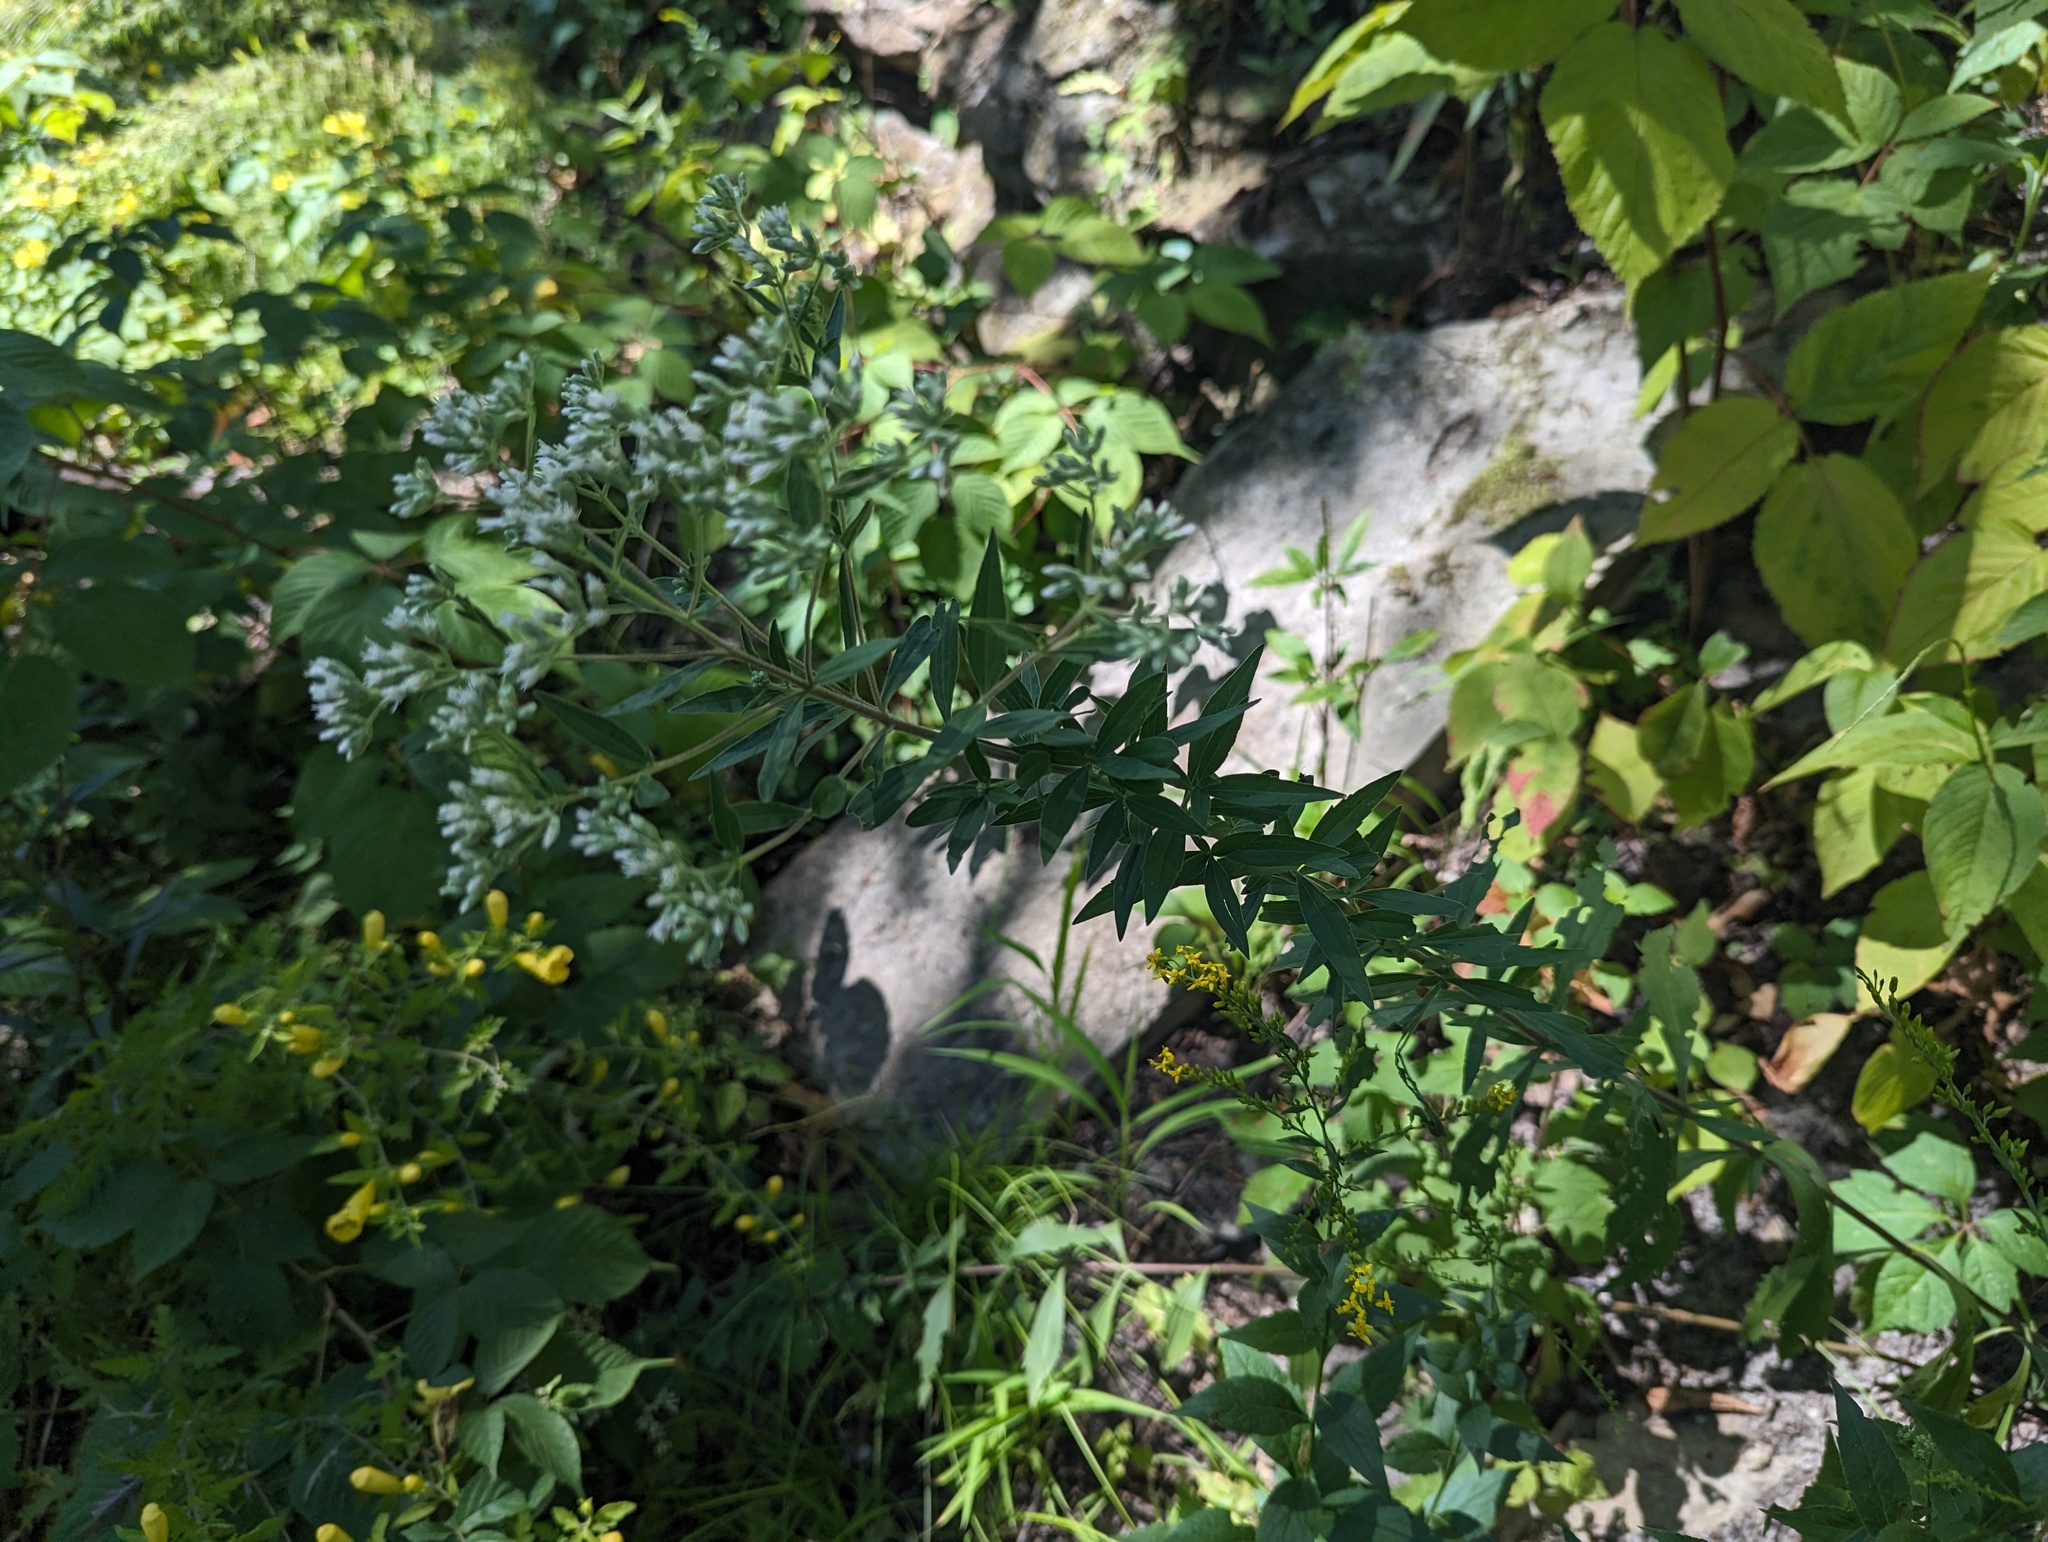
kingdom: Plantae
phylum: Tracheophyta
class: Magnoliopsida
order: Asterales
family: Asteraceae
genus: Eupatorium
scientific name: Eupatorium altissimum
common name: Tall thoroughwort
